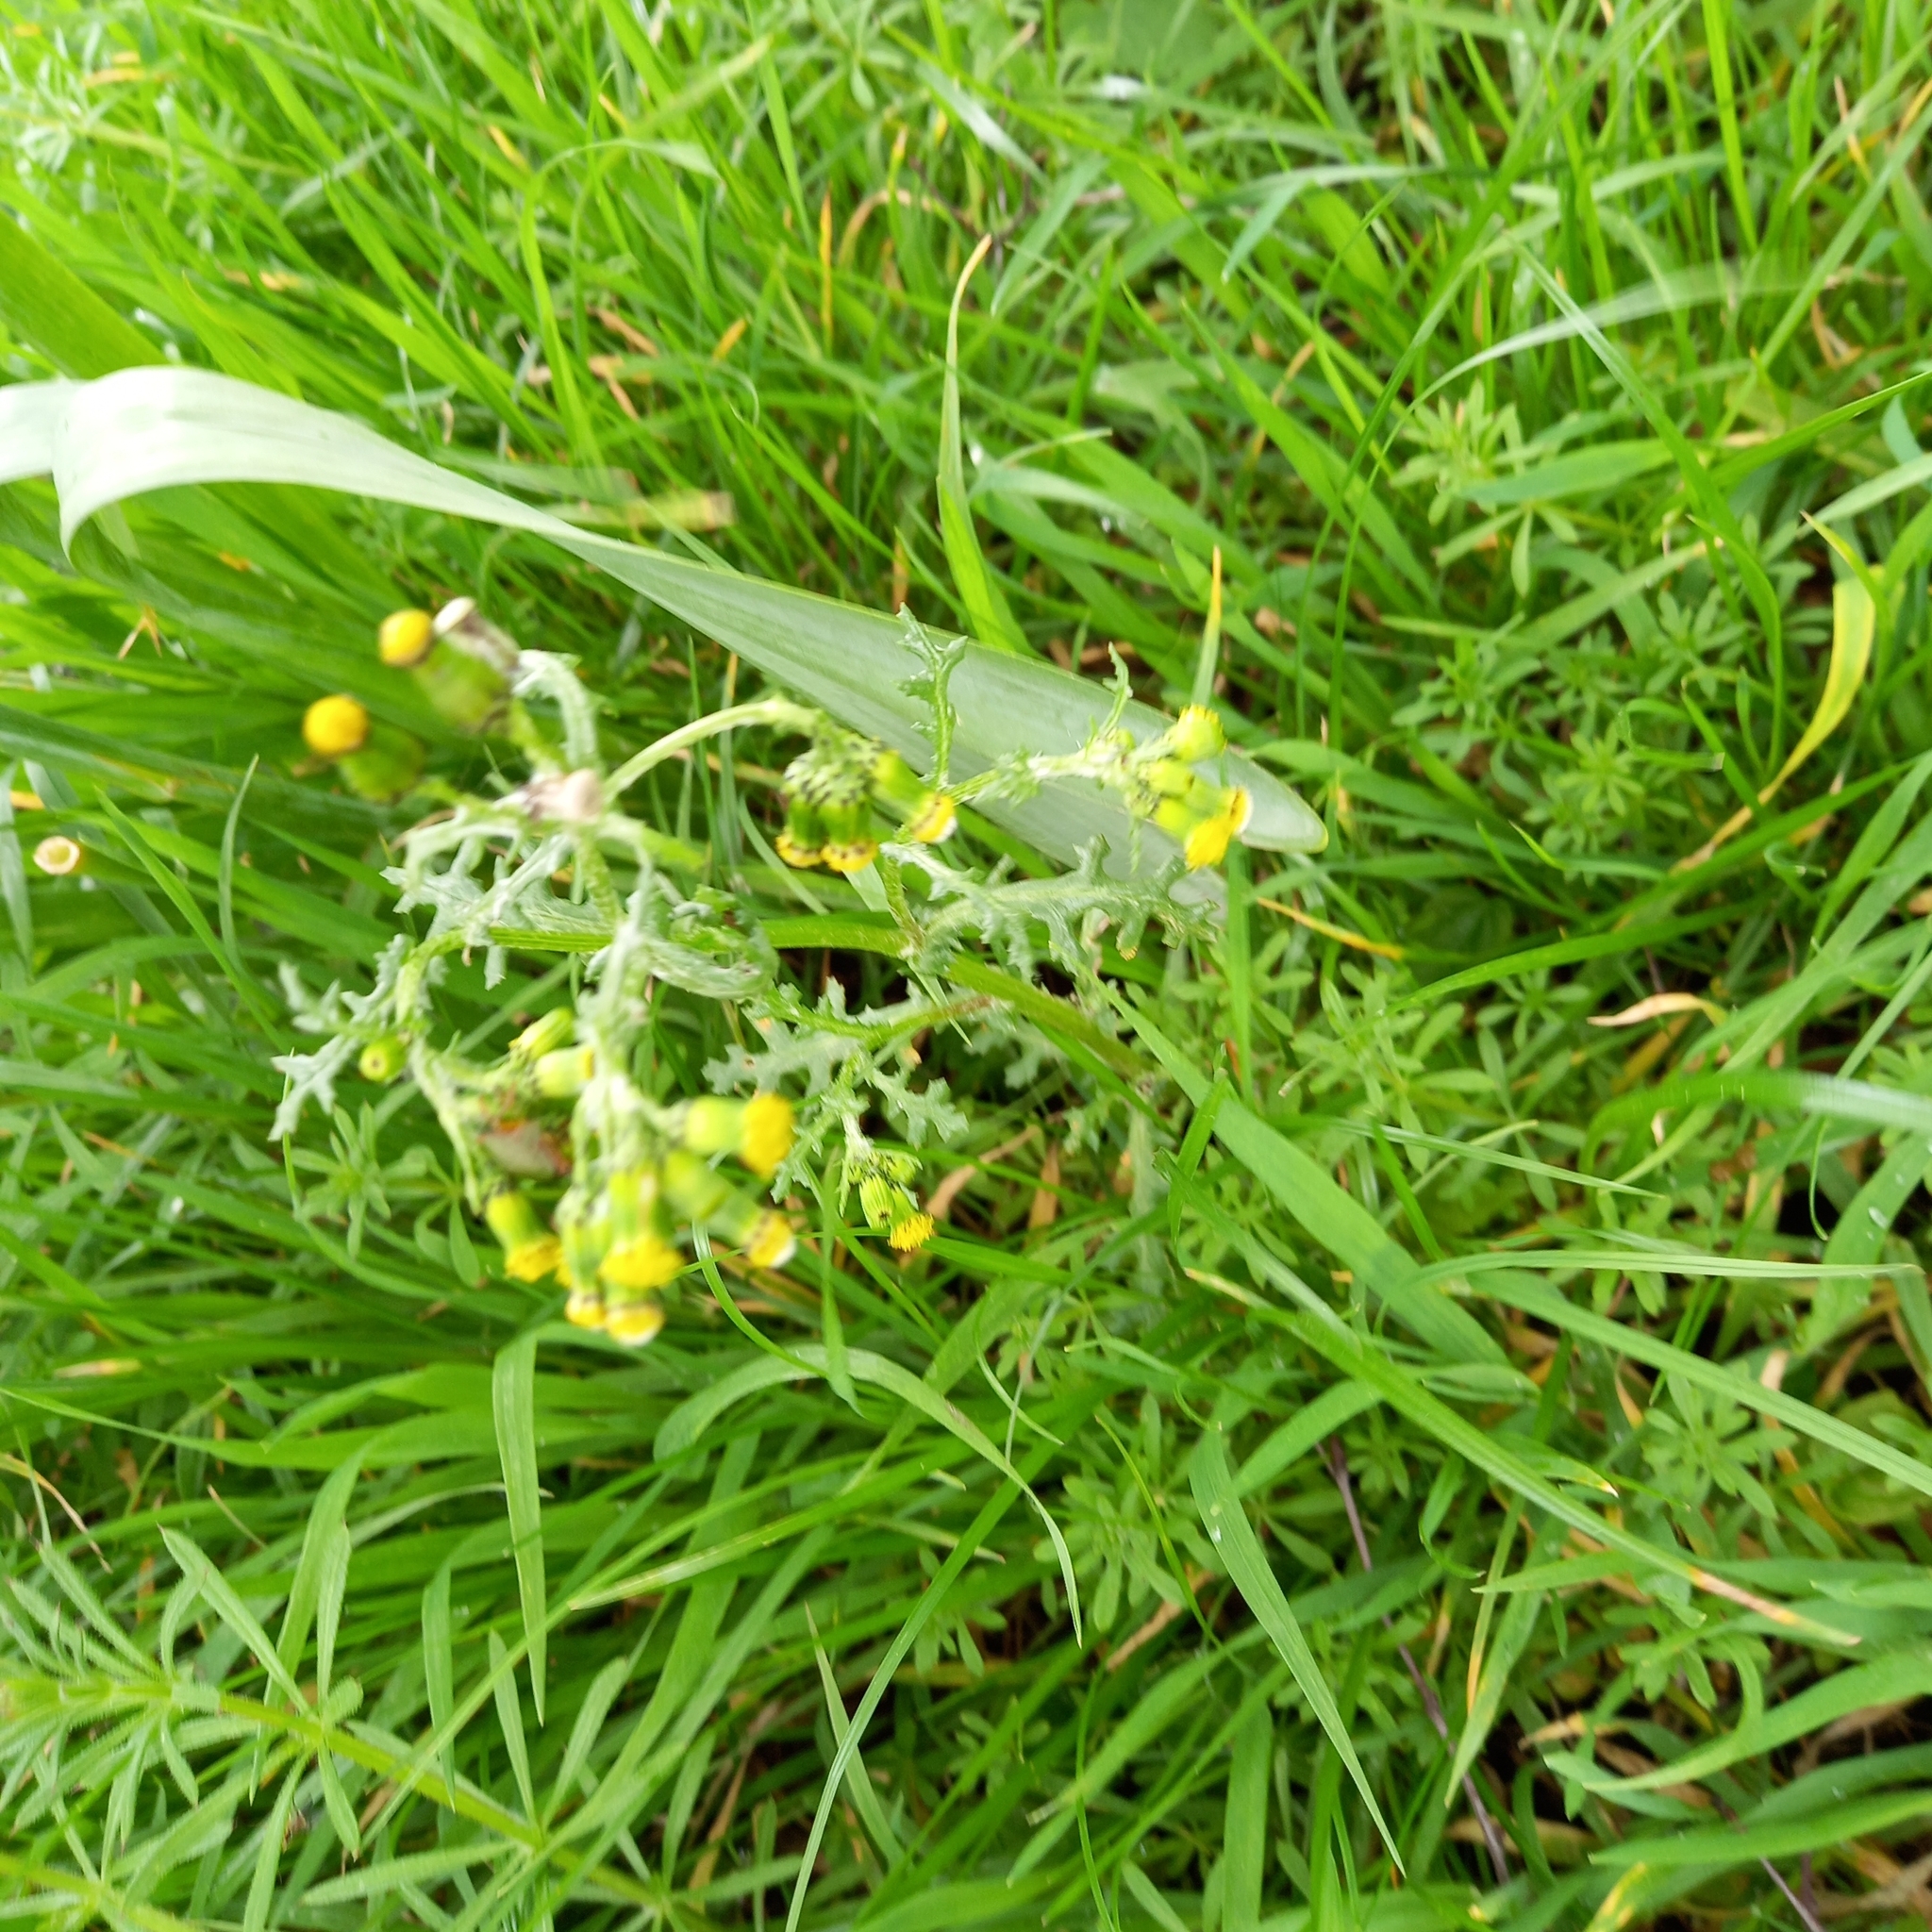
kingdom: Plantae
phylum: Tracheophyta
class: Magnoliopsida
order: Asterales
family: Asteraceae
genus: Senecio
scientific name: Senecio vulgaris
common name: Old-man-in-the-spring
